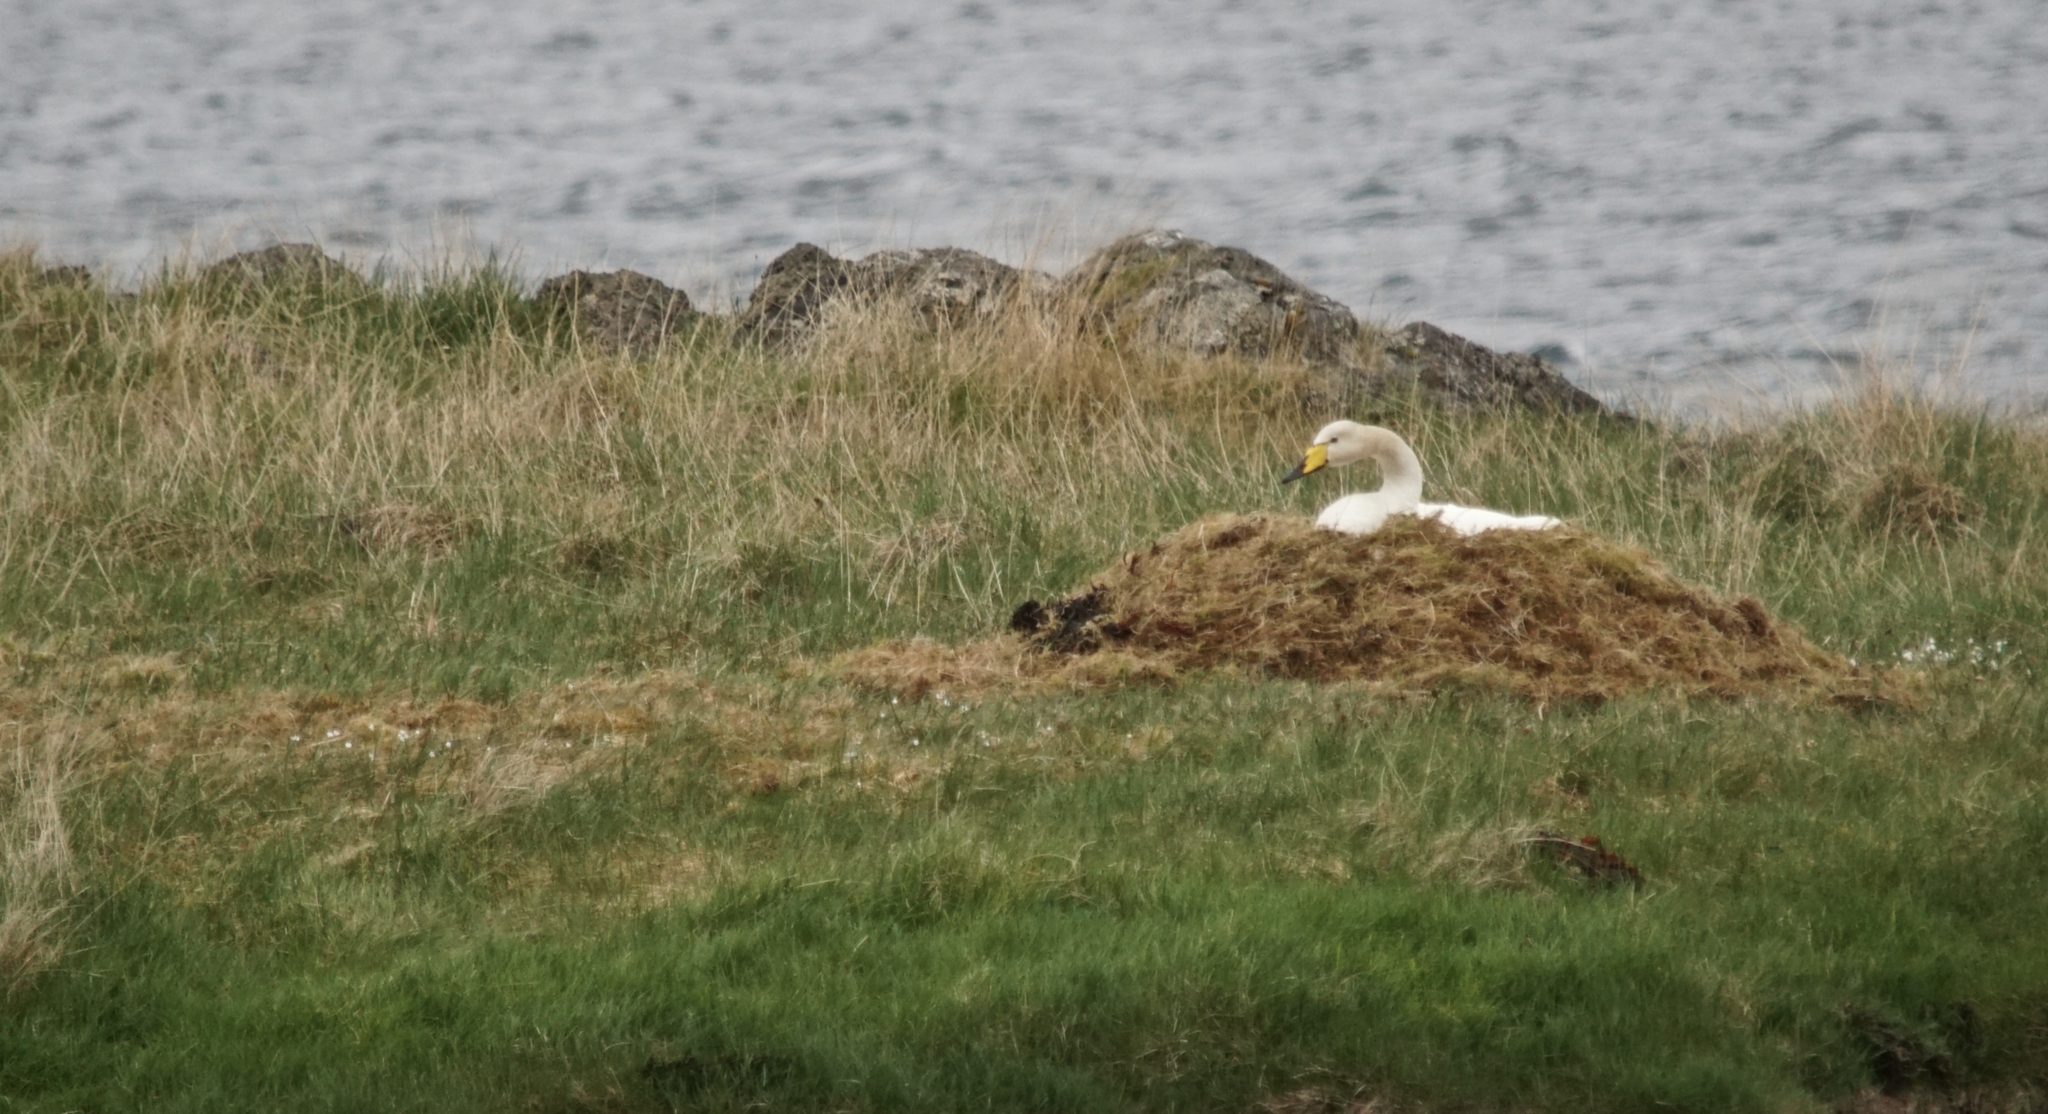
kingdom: Animalia
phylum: Chordata
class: Aves
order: Anseriformes
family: Anatidae
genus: Cygnus
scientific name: Cygnus cygnus
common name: Whooper swan
